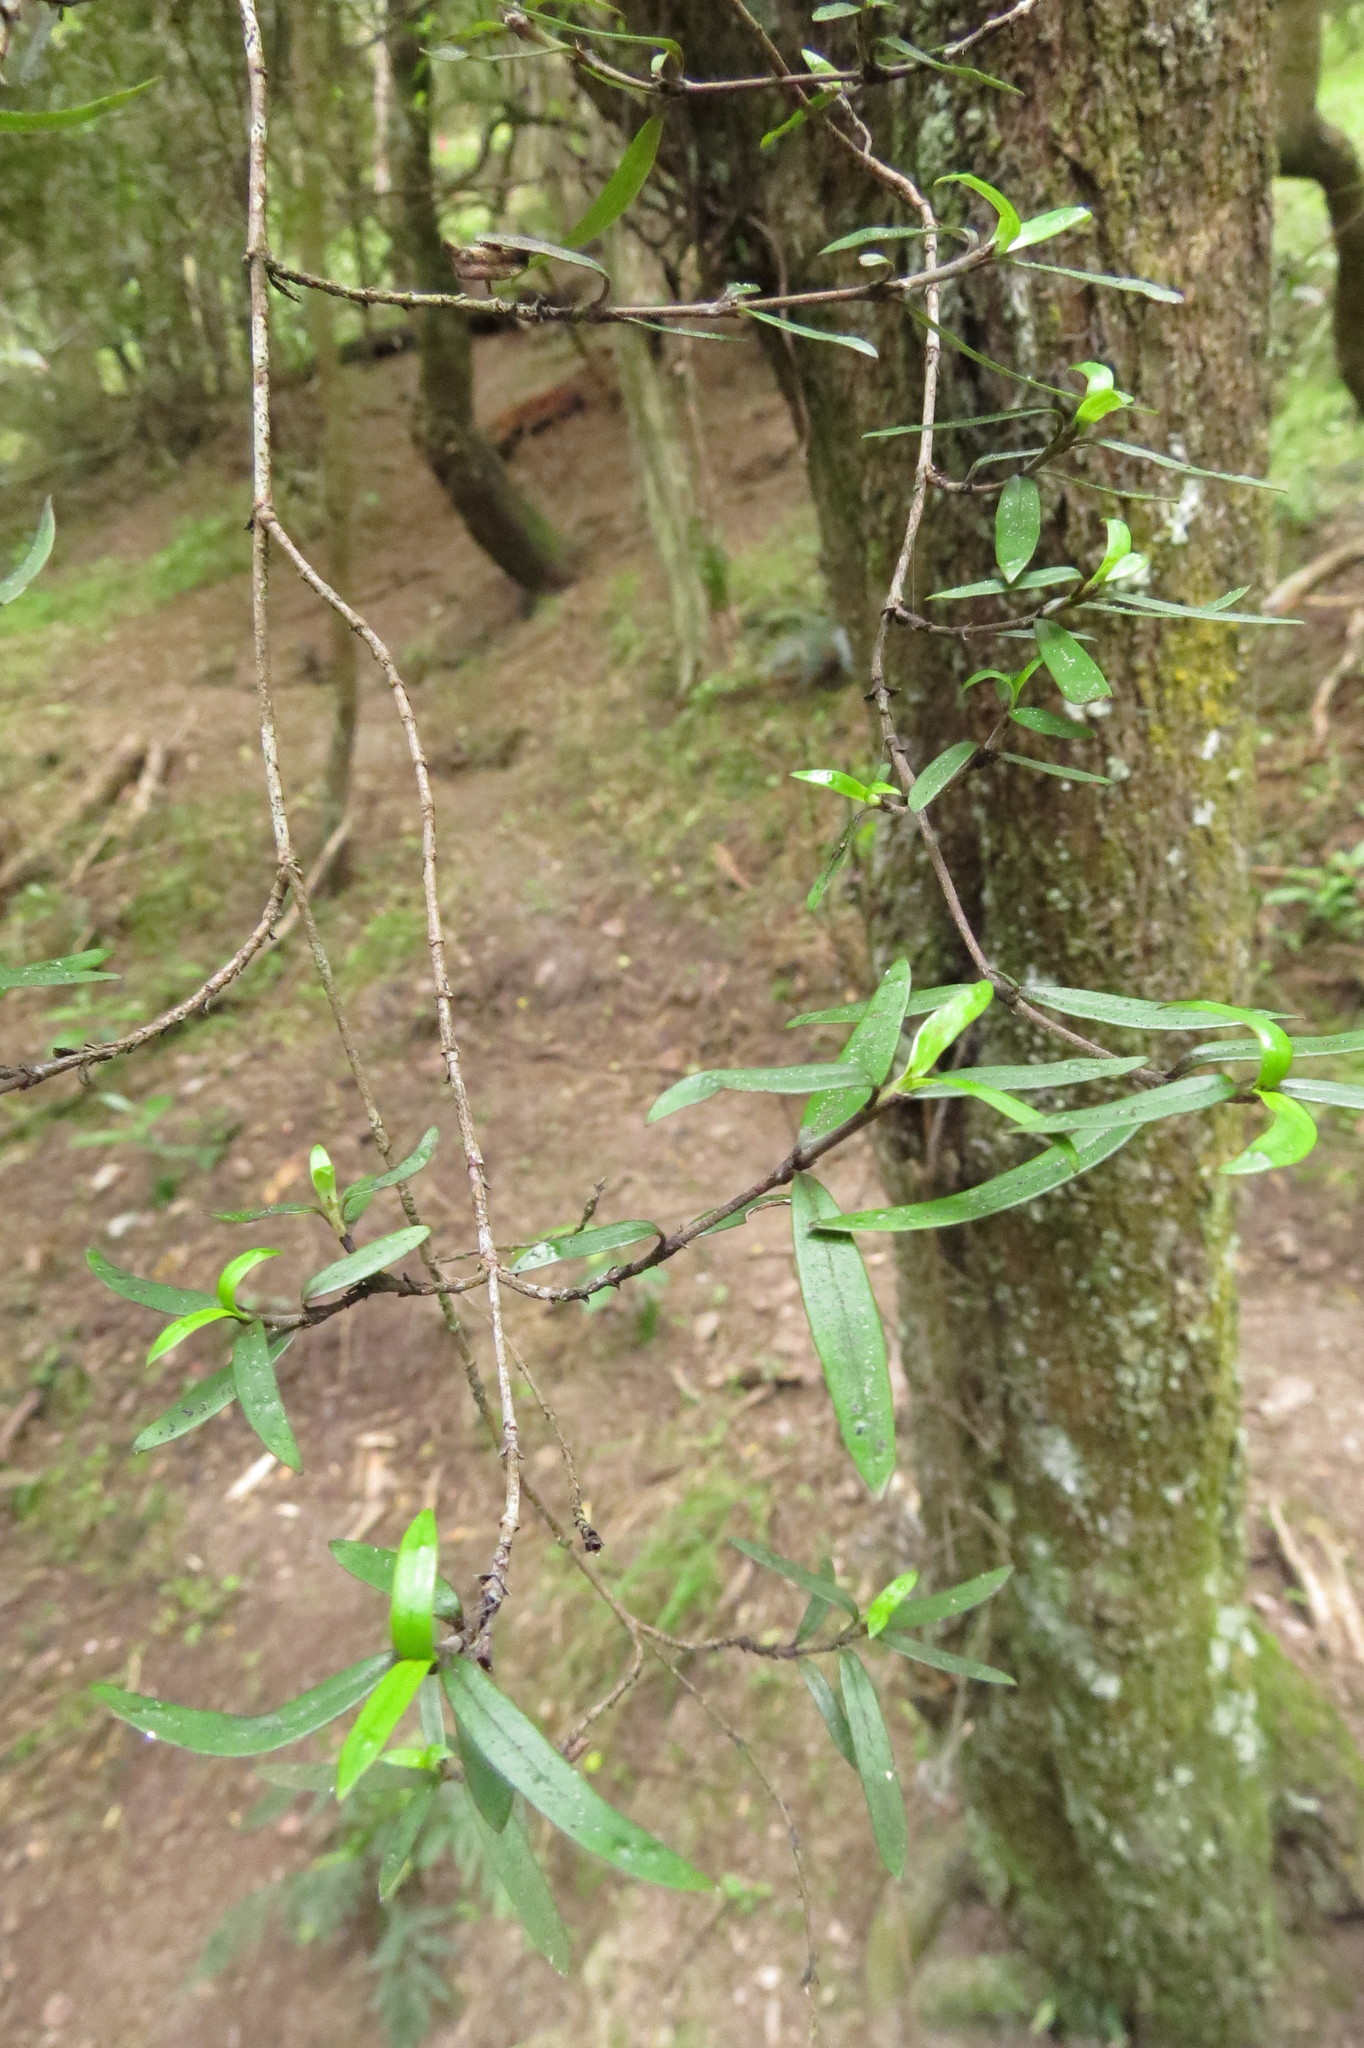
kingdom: Plantae
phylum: Tracheophyta
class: Magnoliopsida
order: Gentianales
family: Rubiaceae
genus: Coprosma
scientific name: Coprosma linariifolia
